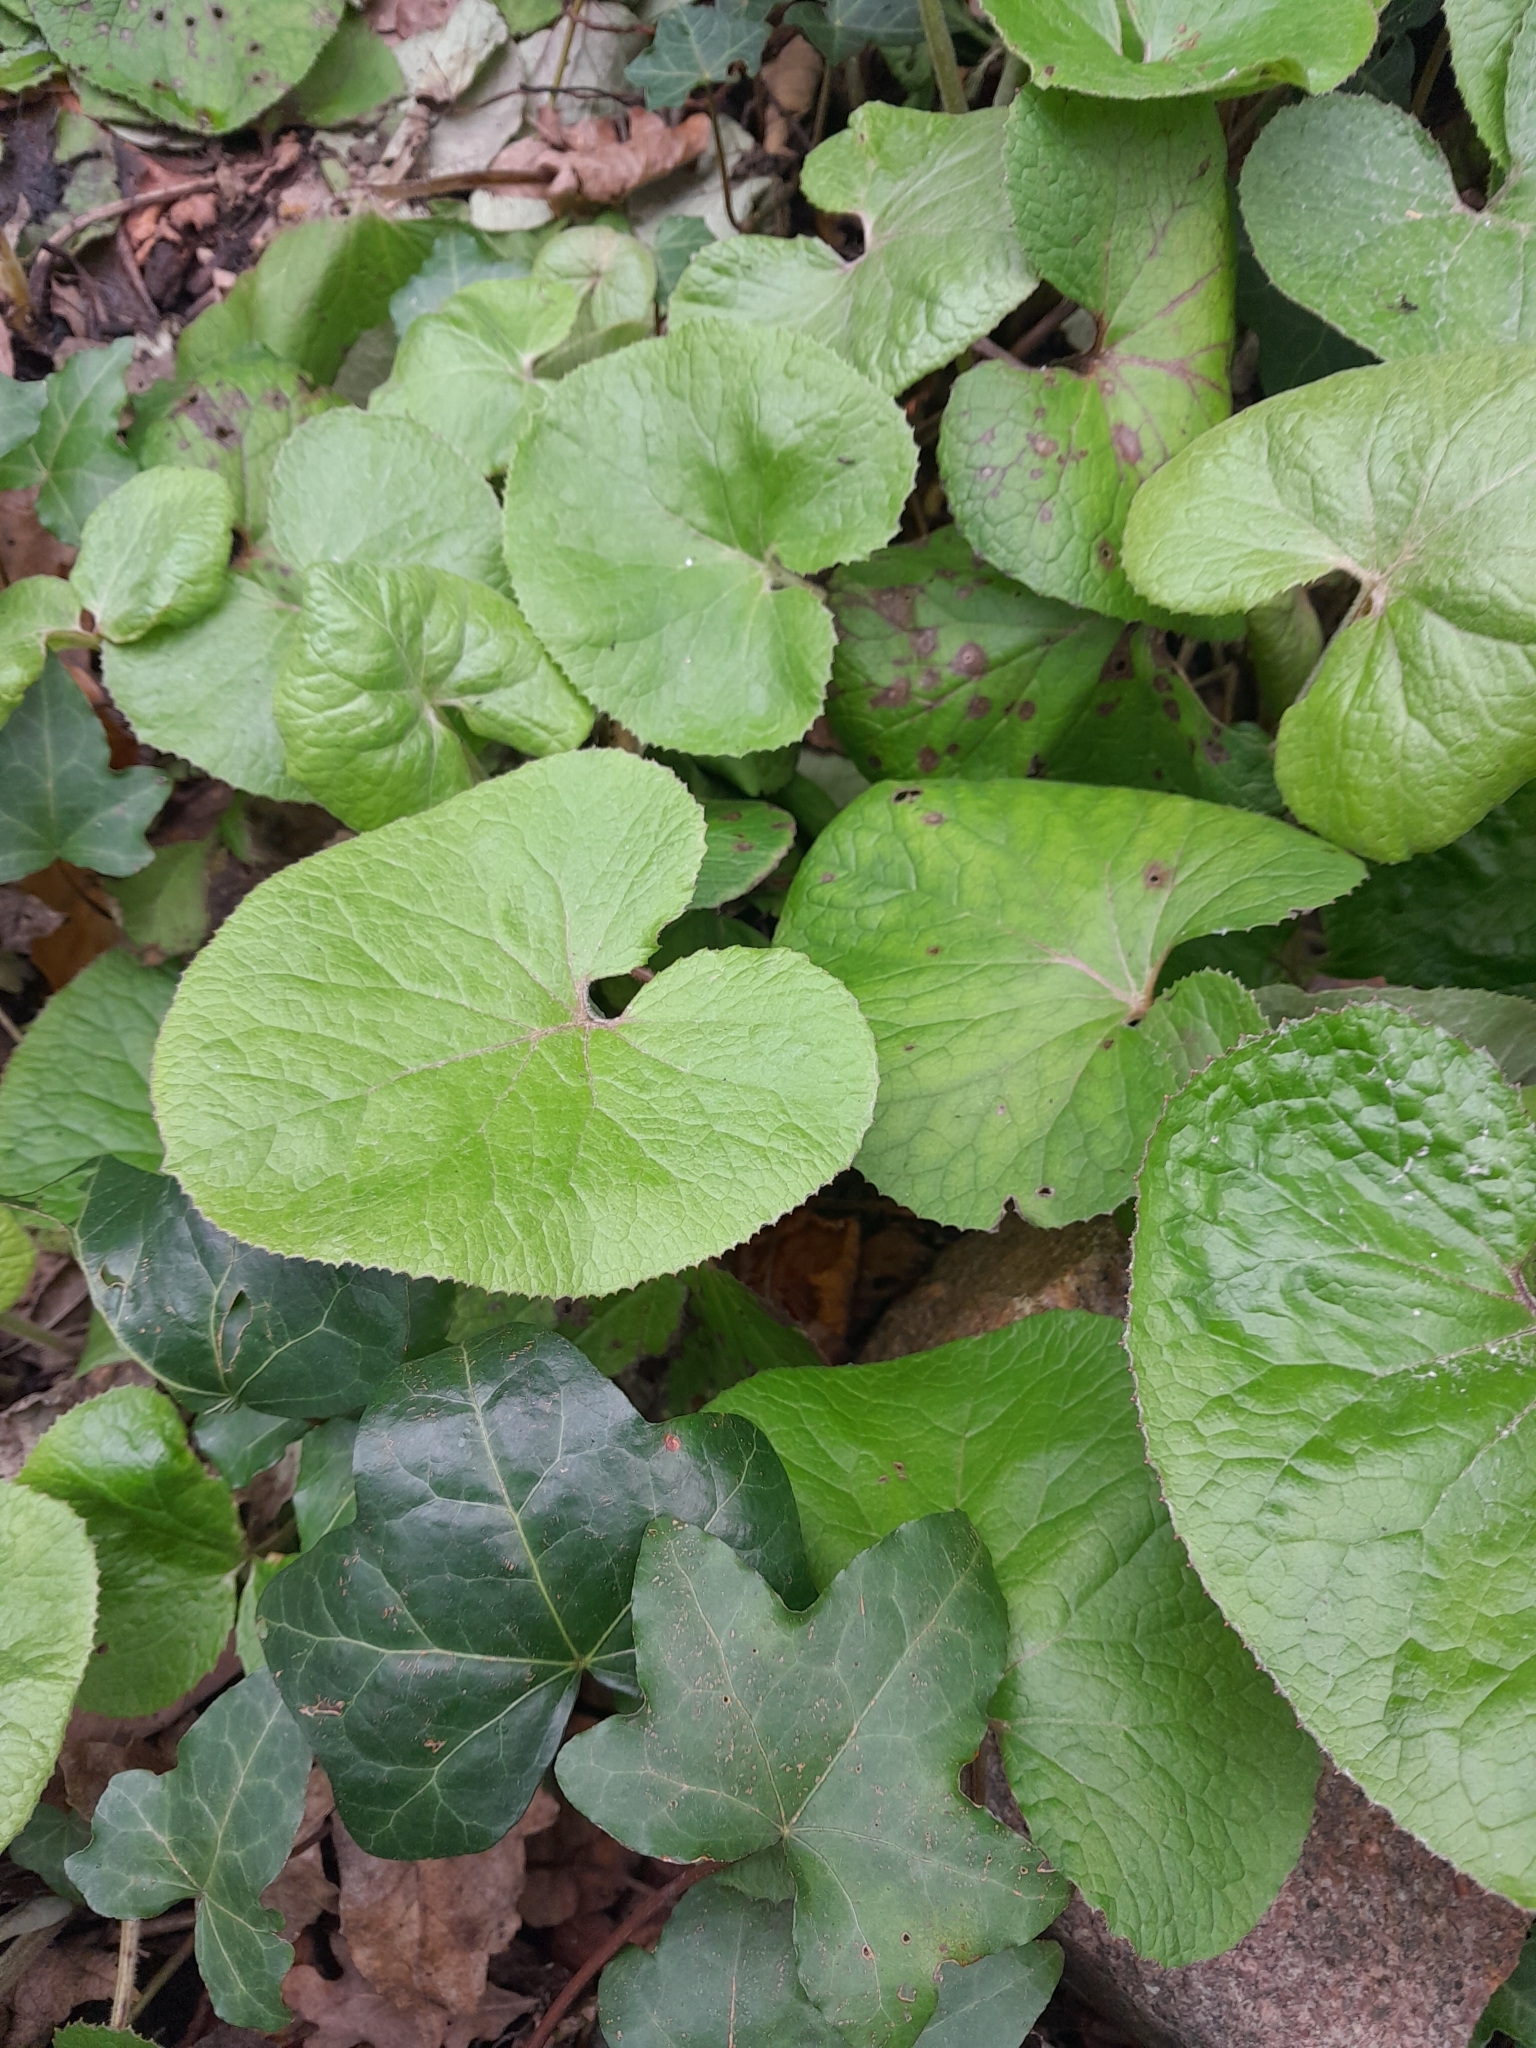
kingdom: Plantae
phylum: Tracheophyta
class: Magnoliopsida
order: Asterales
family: Asteraceae
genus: Petasites
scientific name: Petasites pyrenaicus
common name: Winter heliotrope
